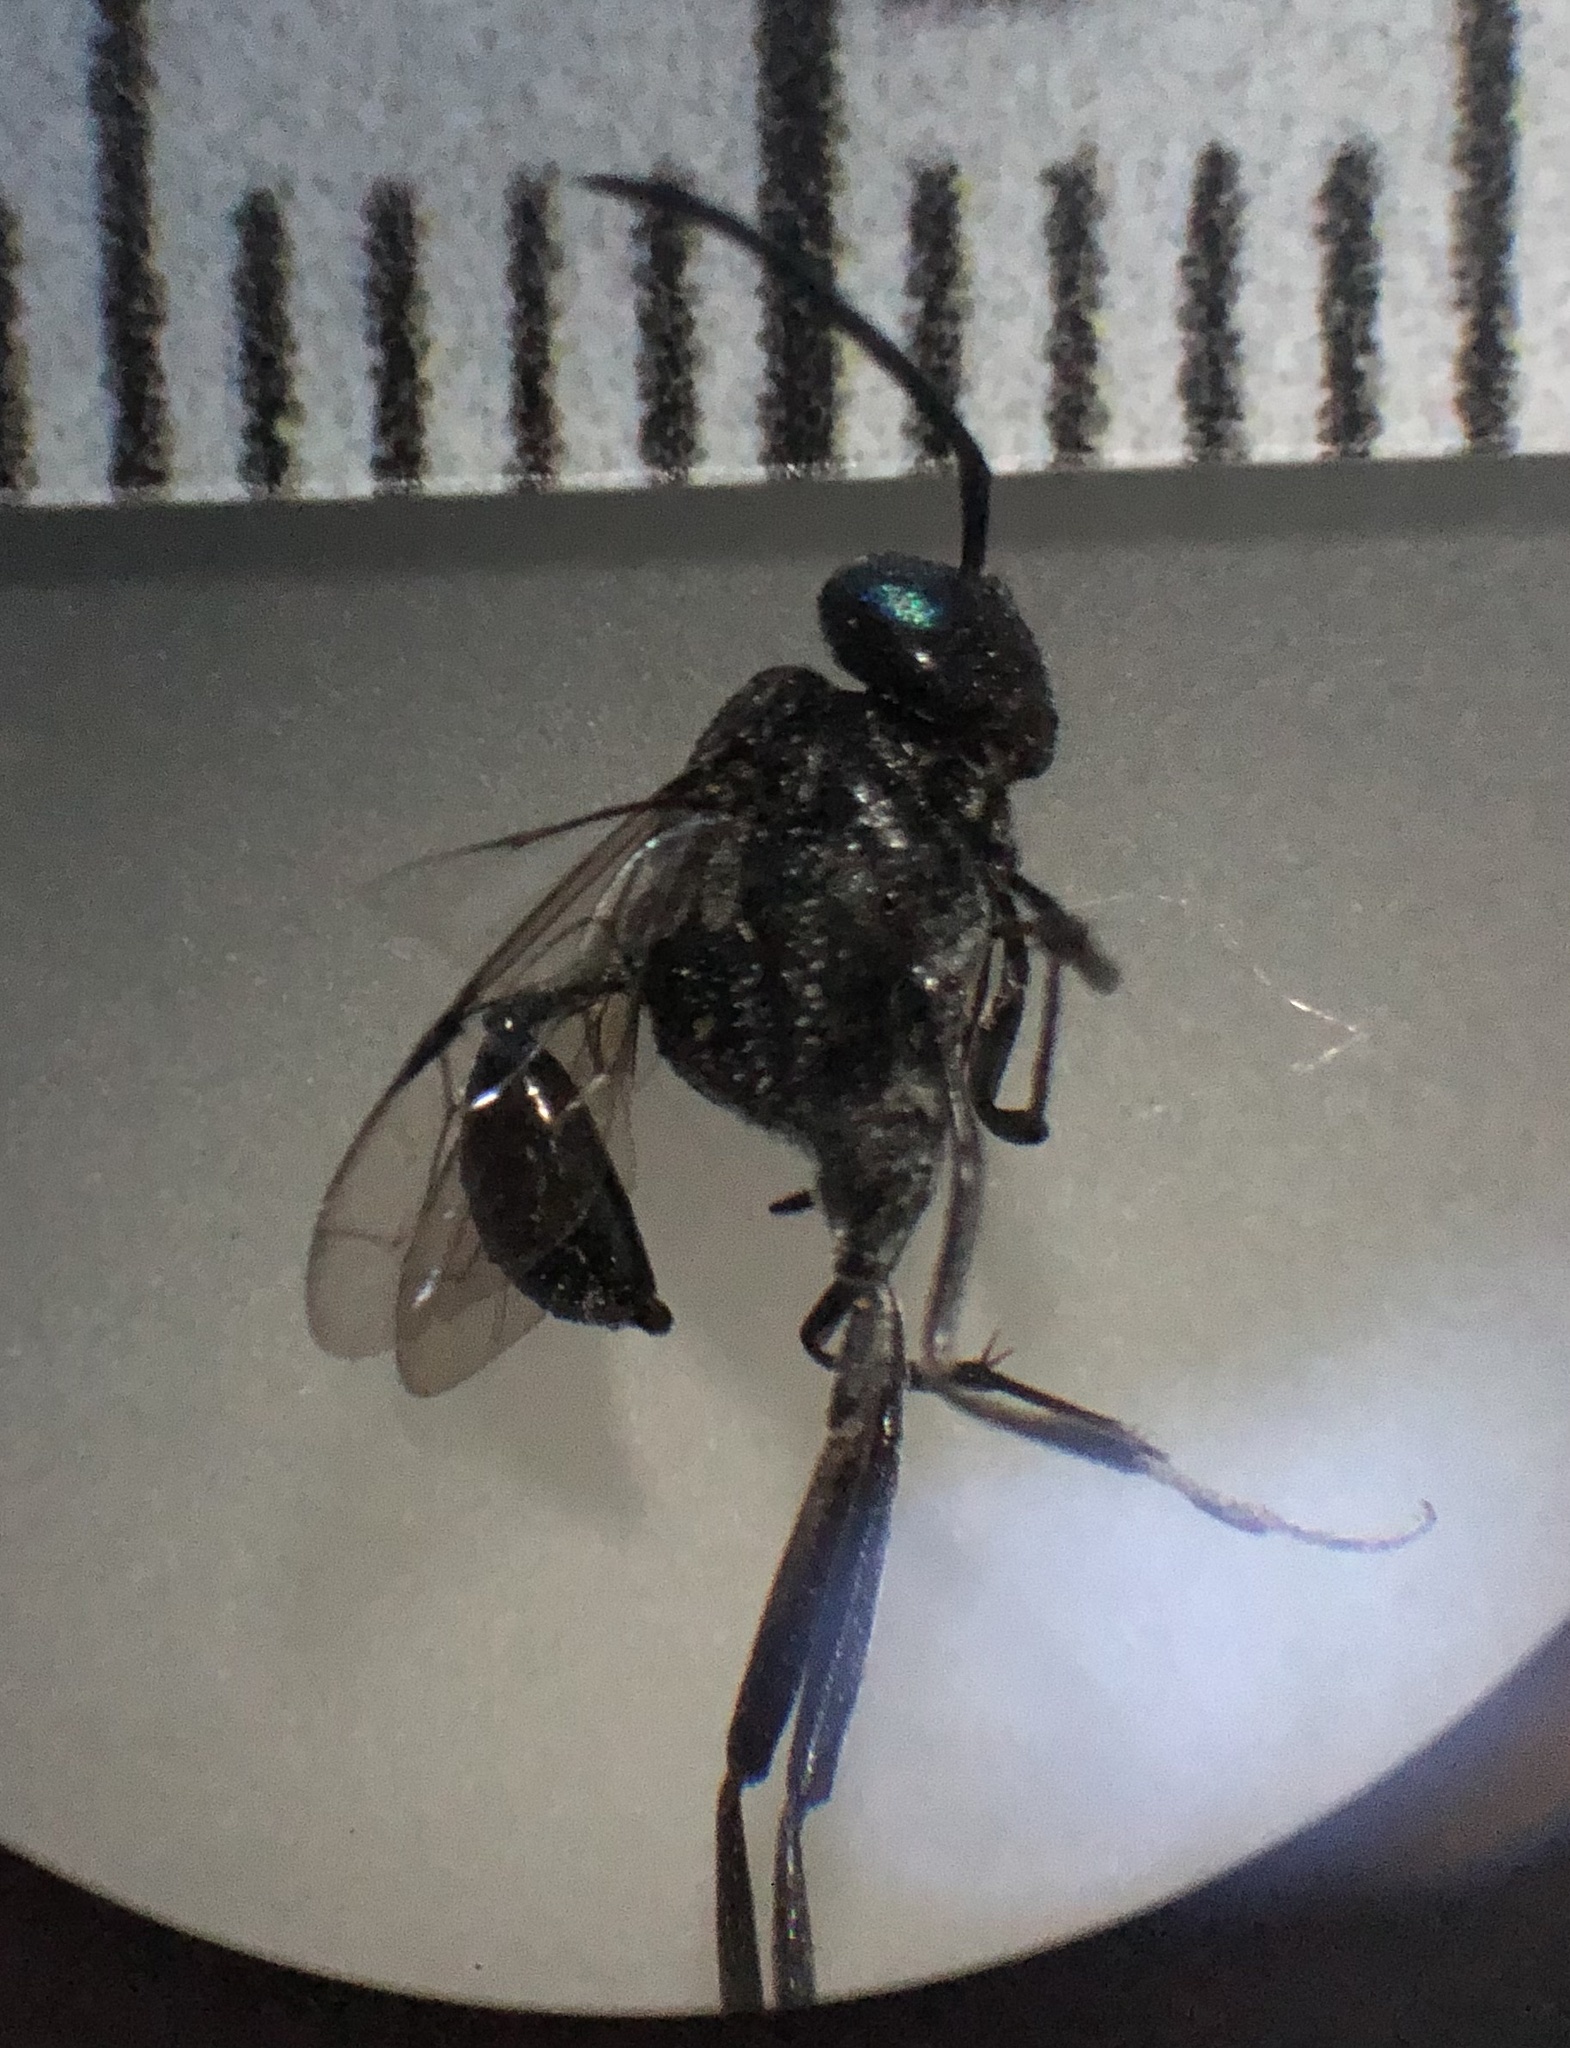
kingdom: Animalia
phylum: Arthropoda
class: Insecta
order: Hymenoptera
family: Evaniidae
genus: Evania
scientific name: Evania appendigaster
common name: Ensign wasp
